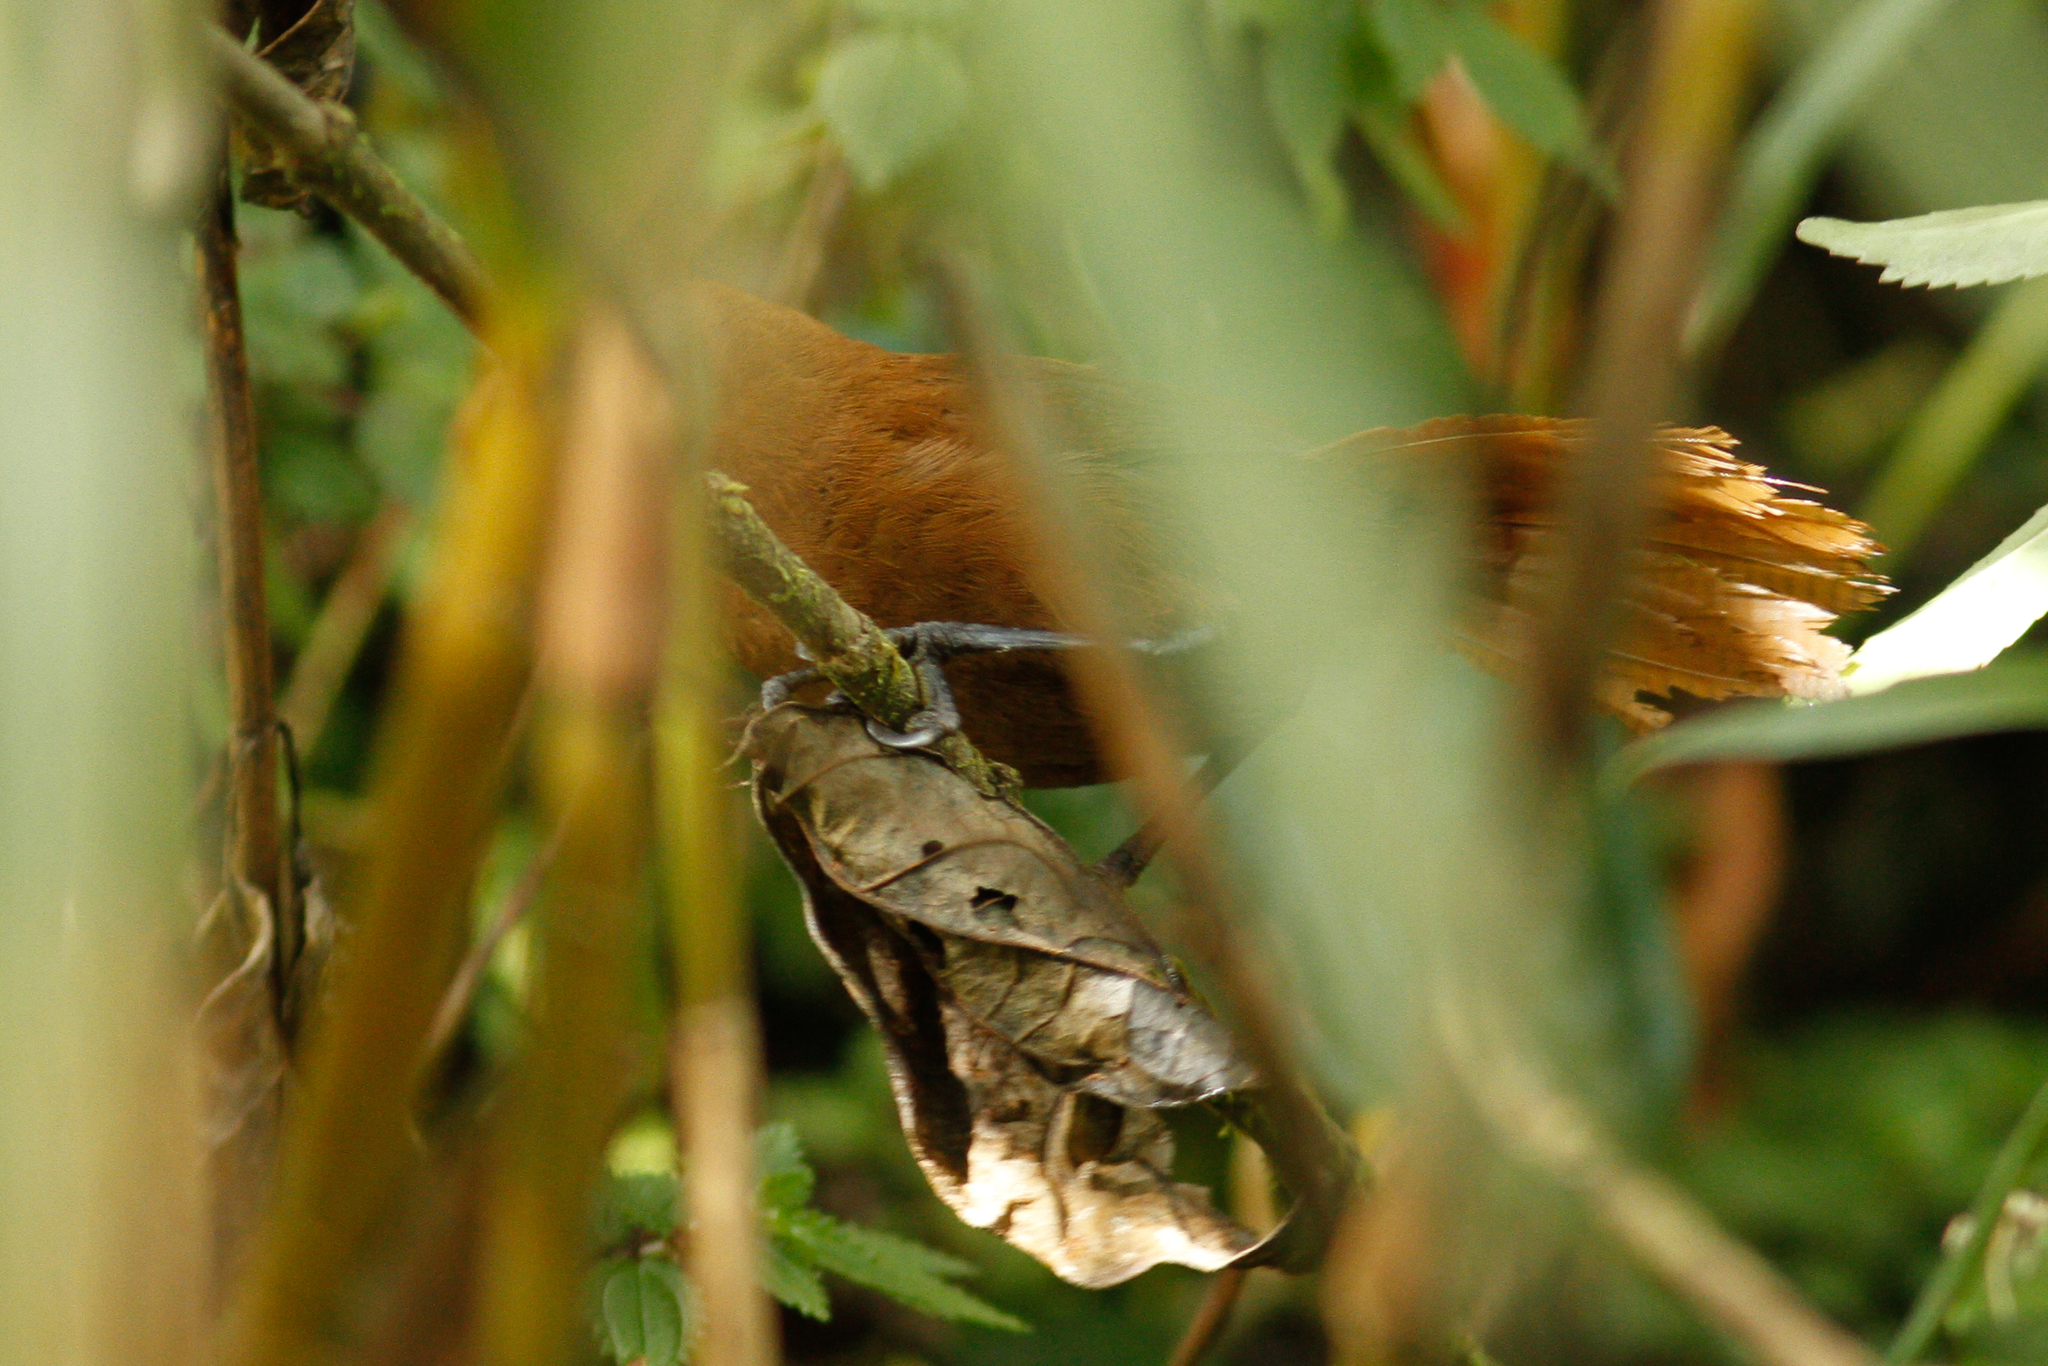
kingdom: Animalia
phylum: Chordata
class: Aves
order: Passeriformes
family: Troglodytidae
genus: Cinnycerthia
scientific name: Cinnycerthia unirufa
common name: Rufous wren
